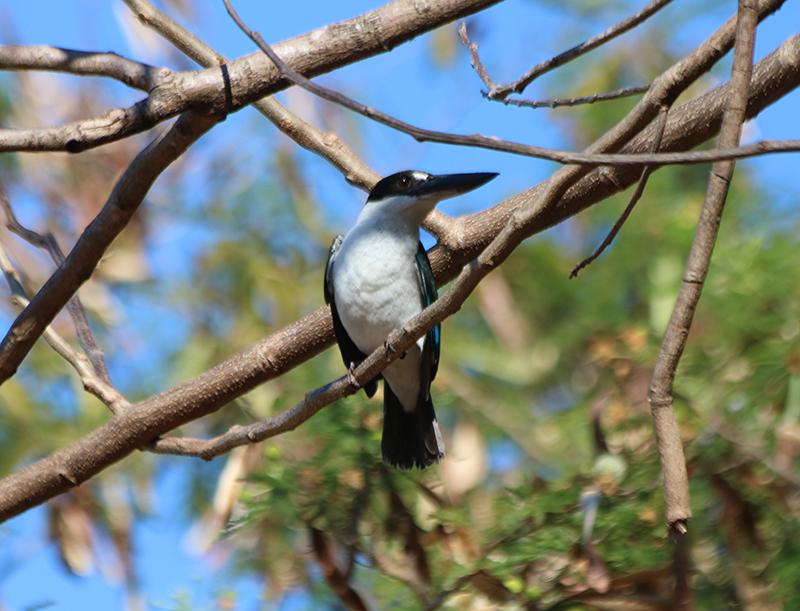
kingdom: Animalia
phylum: Chordata
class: Aves
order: Coraciiformes
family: Alcedinidae
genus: Todiramphus
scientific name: Todiramphus sordidus
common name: Torresian kingfisher
